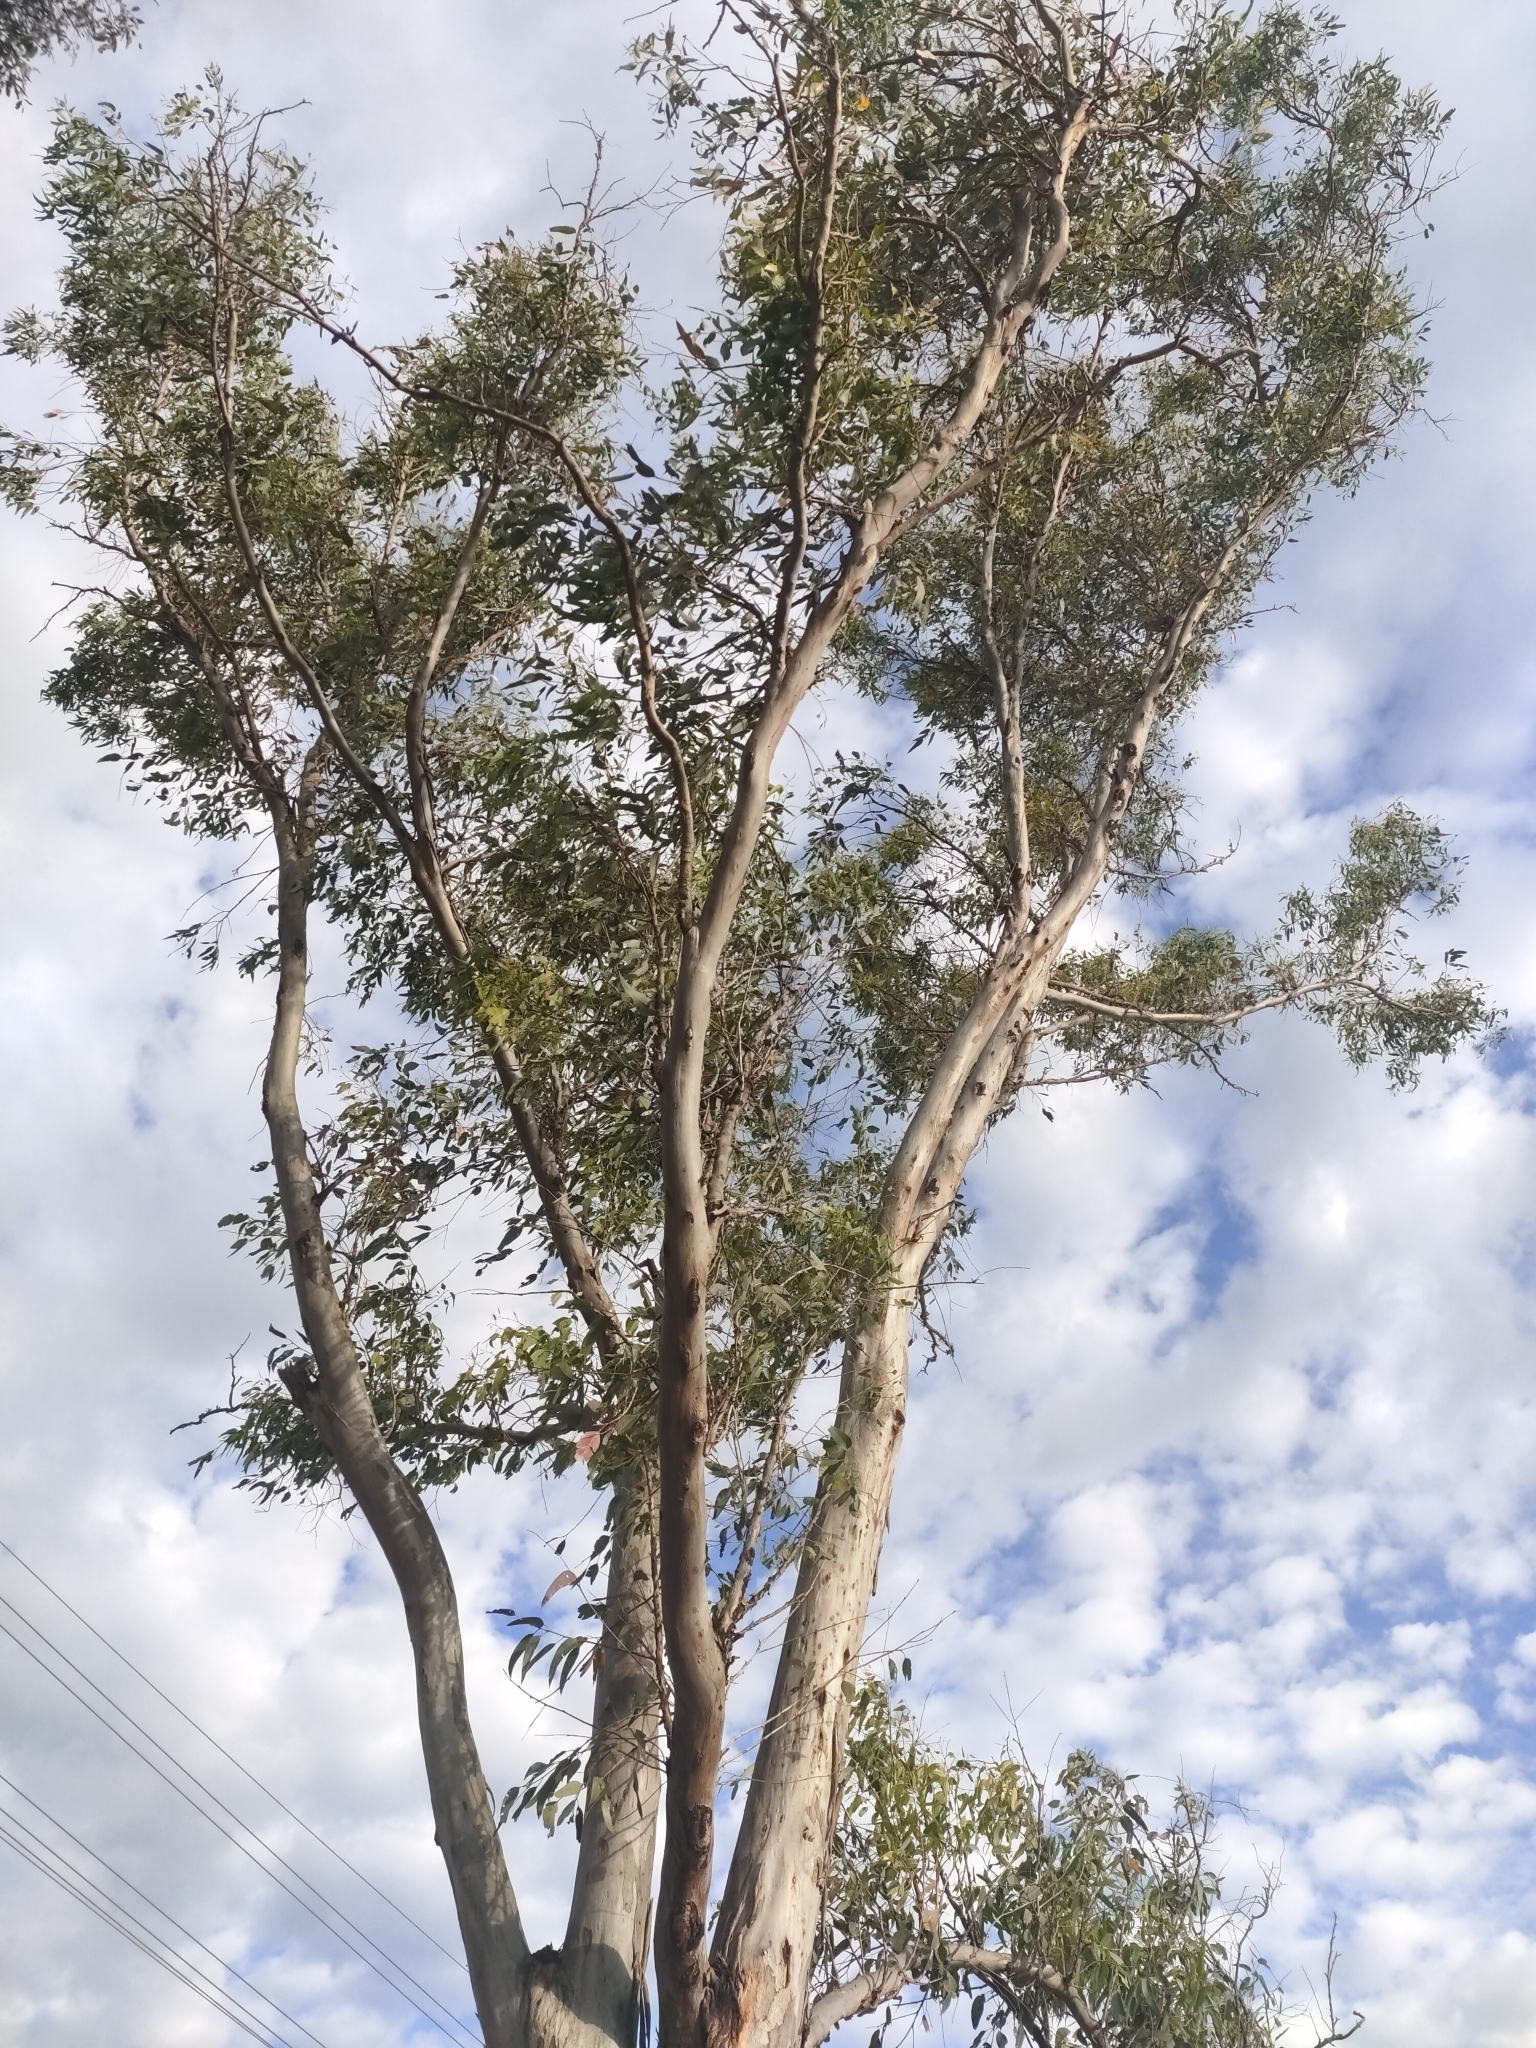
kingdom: Animalia
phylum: Chordata
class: Aves
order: Passeriformes
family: Meliphagidae
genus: Manorina
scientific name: Manorina melanocephala
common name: Noisy miner
